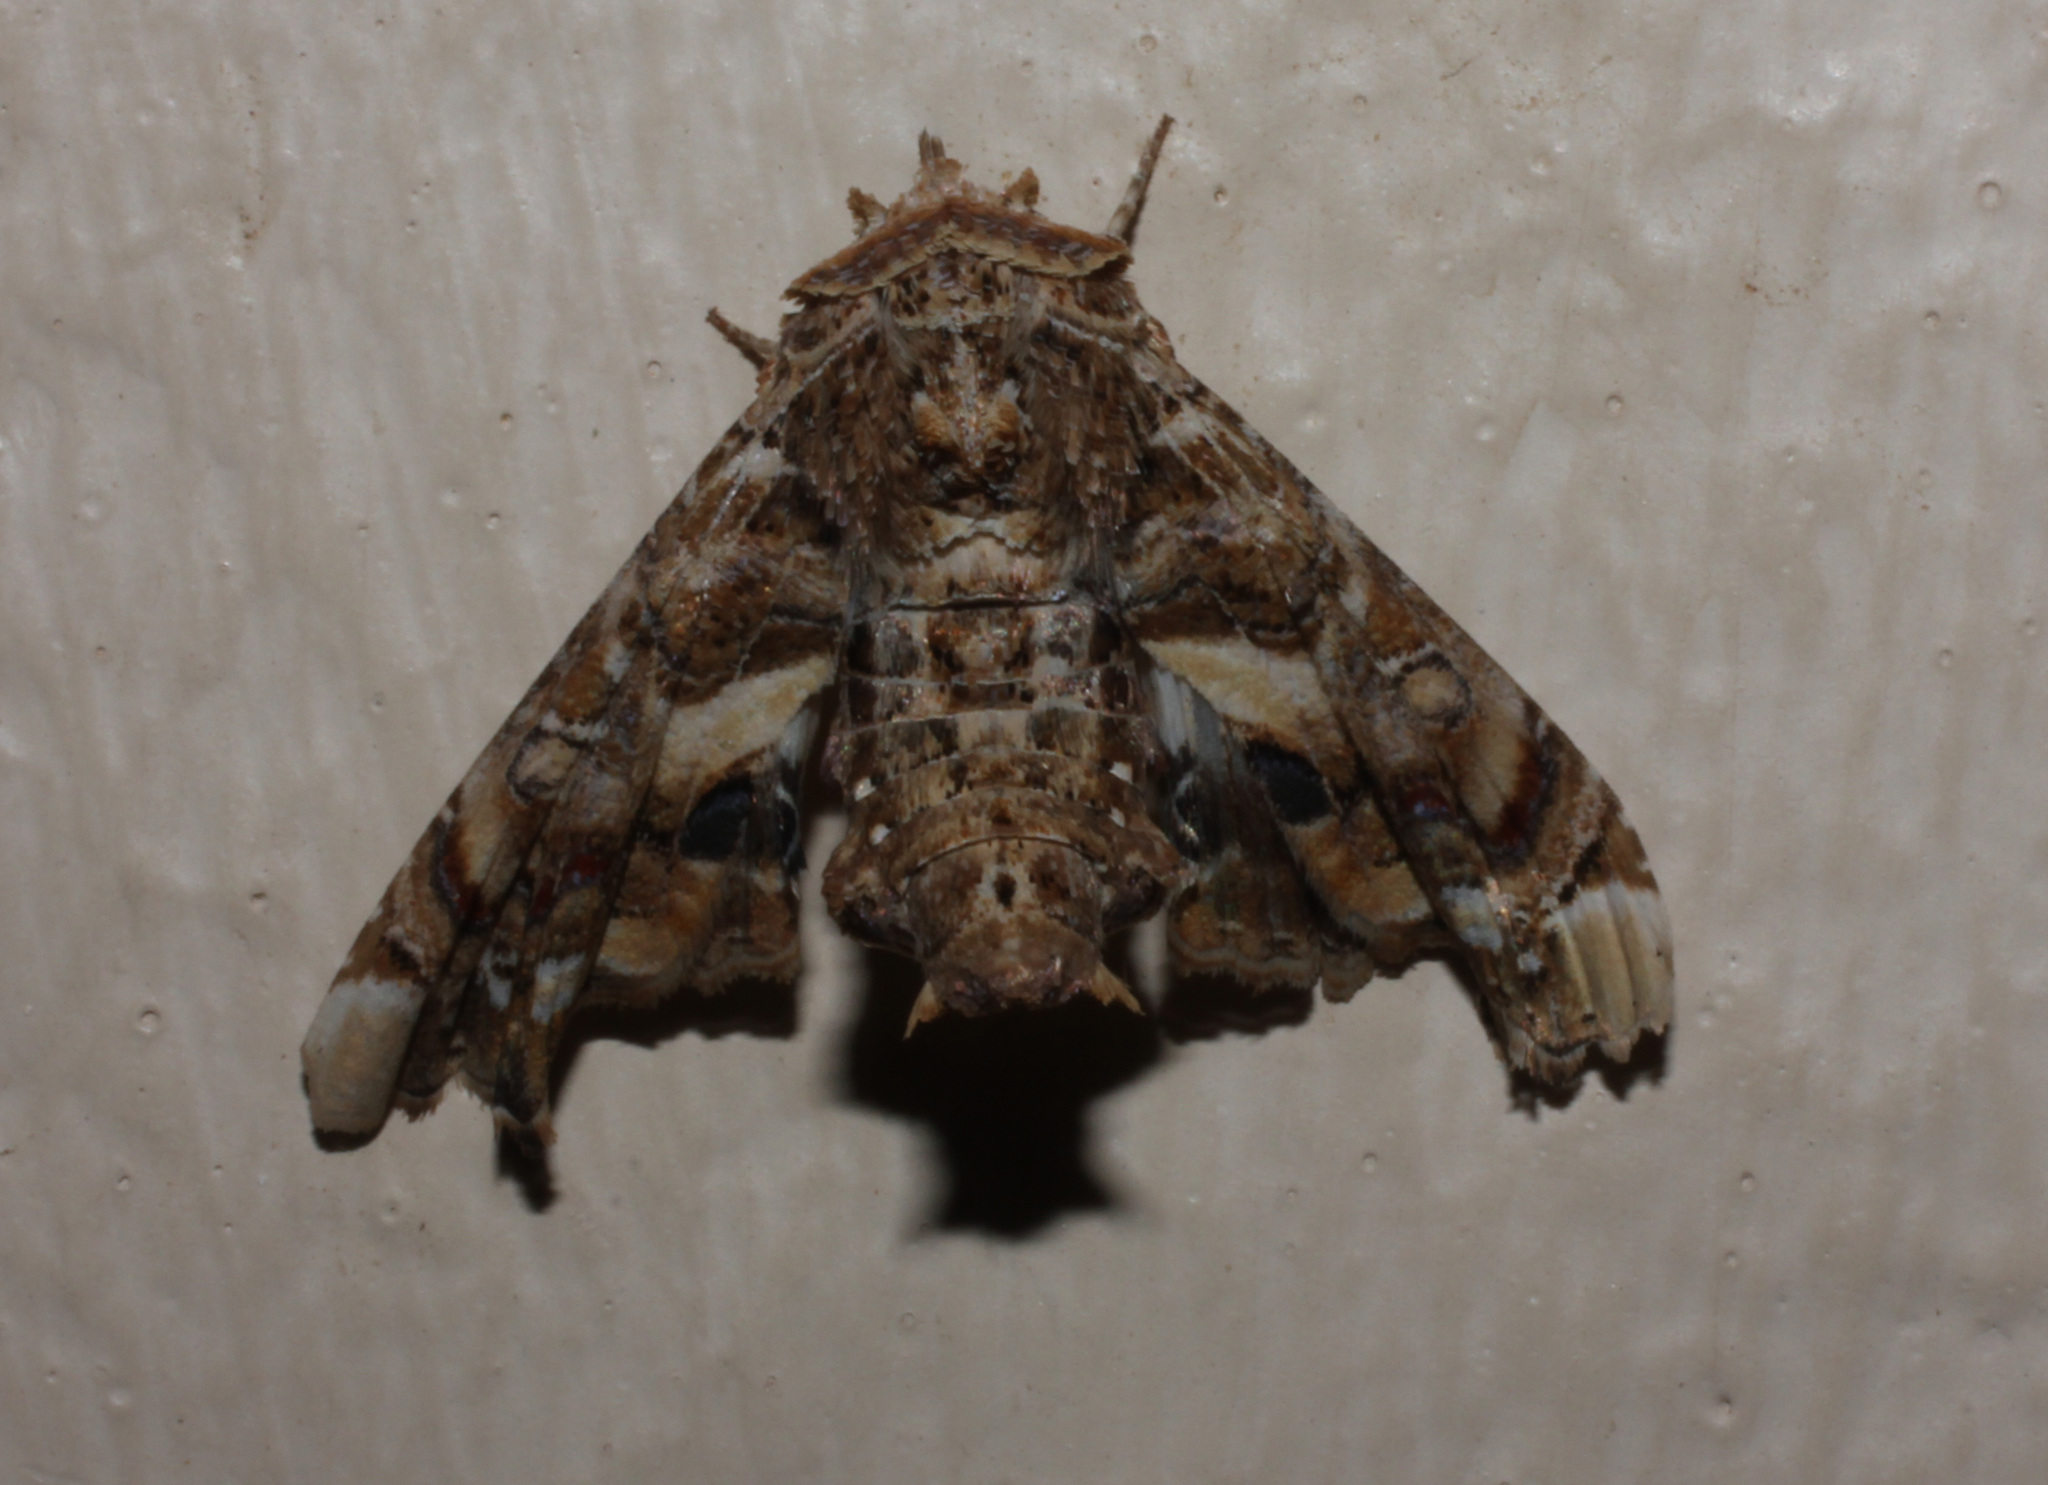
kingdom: Animalia
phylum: Arthropoda
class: Insecta
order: Lepidoptera
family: Euteliidae
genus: Eutelia
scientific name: Eutelia adulatrix
